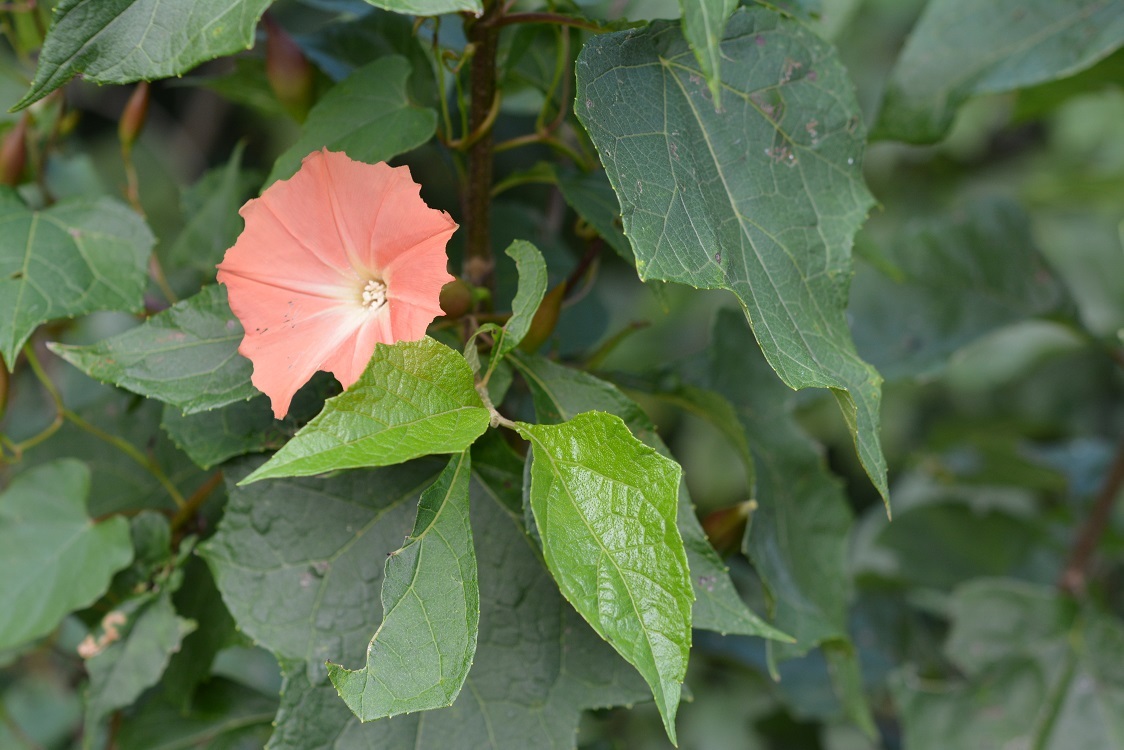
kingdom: Plantae
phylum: Tracheophyta
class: Magnoliopsida
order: Solanales
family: Convolvulaceae
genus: Operculina
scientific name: Operculina pteripes
